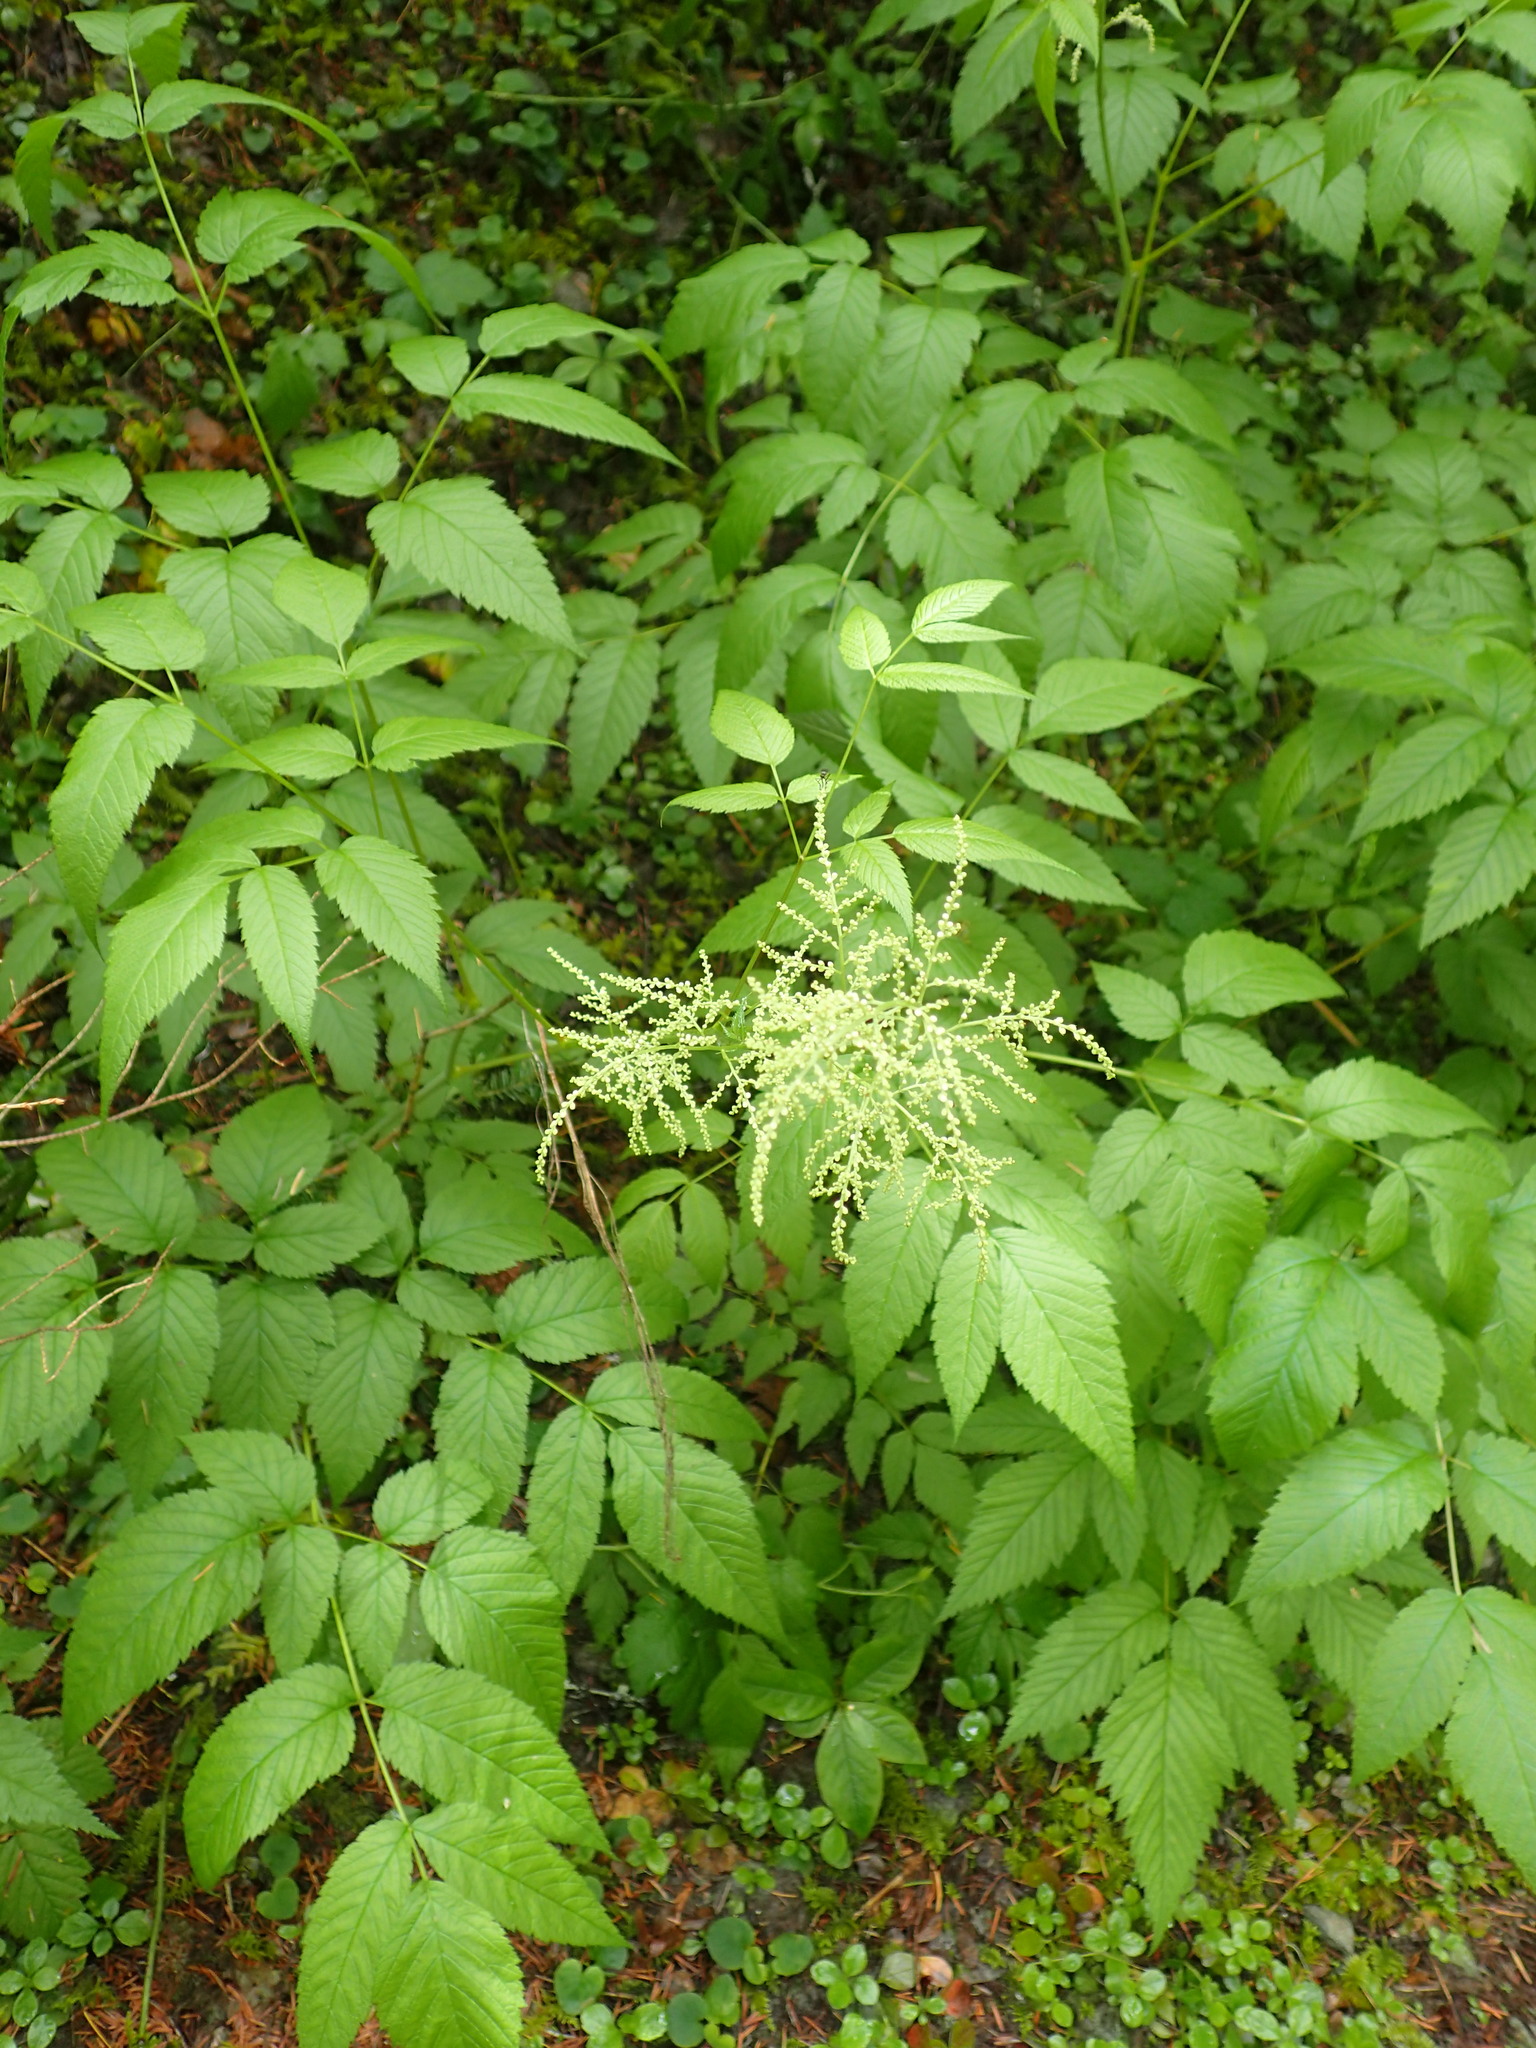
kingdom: Plantae
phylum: Tracheophyta
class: Magnoliopsida
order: Rosales
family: Rosaceae
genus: Aruncus
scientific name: Aruncus dioicus
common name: Buck's-beard
